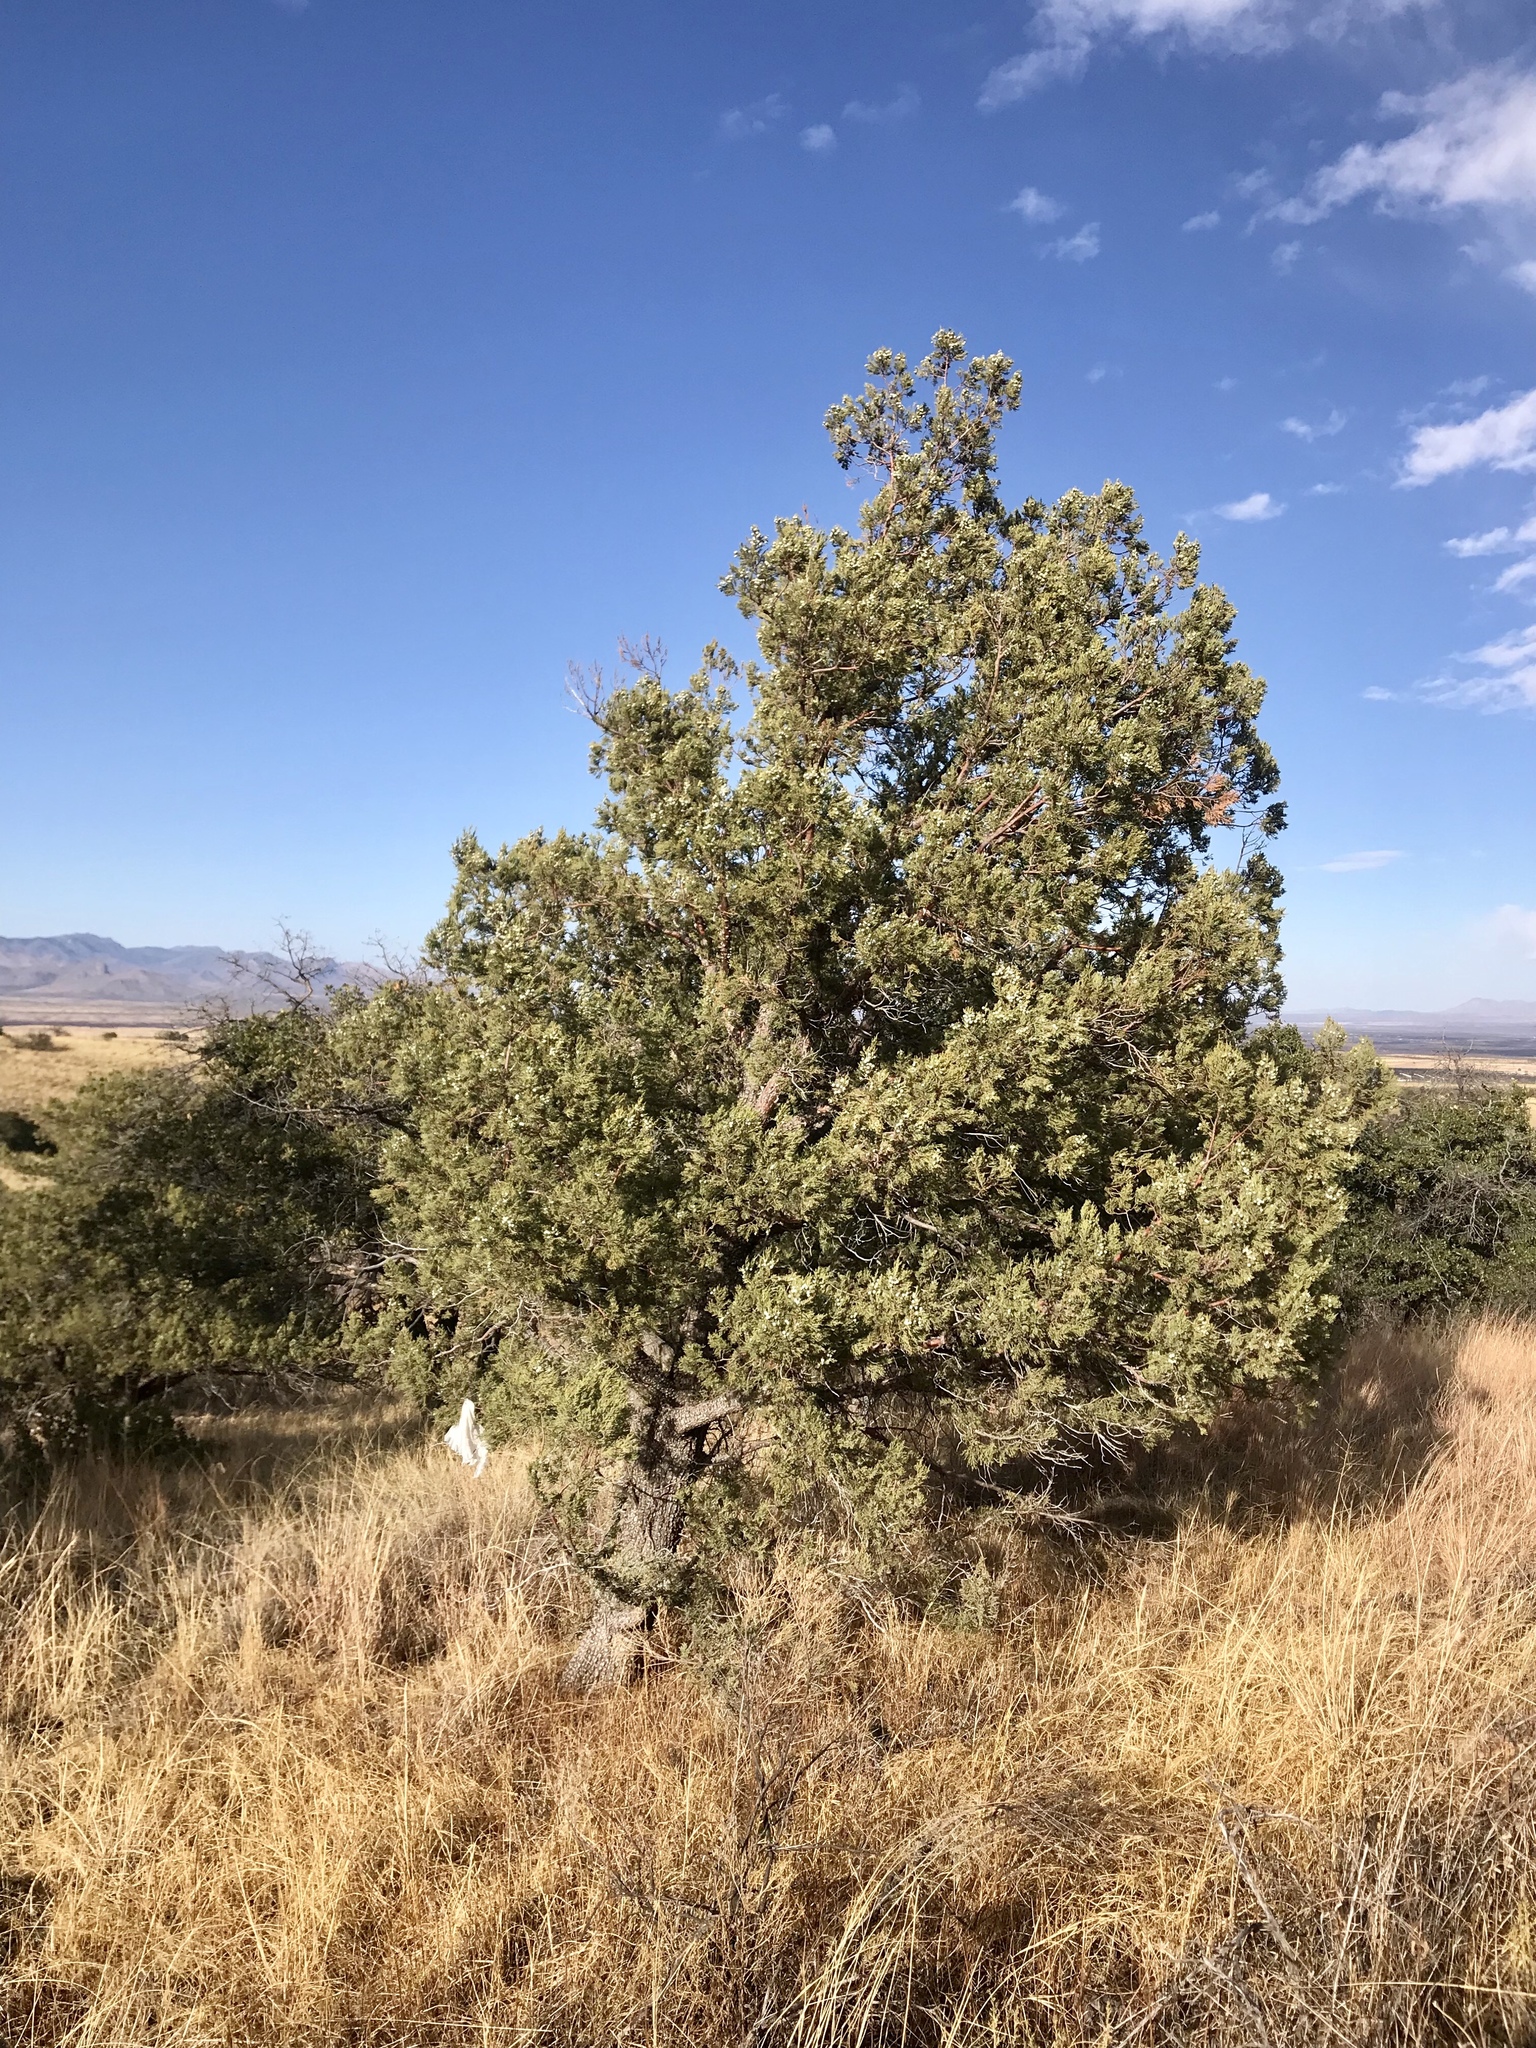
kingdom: Plantae
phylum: Tracheophyta
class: Pinopsida
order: Pinales
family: Cupressaceae
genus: Juniperus
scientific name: Juniperus deppeana
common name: Alligator juniper
